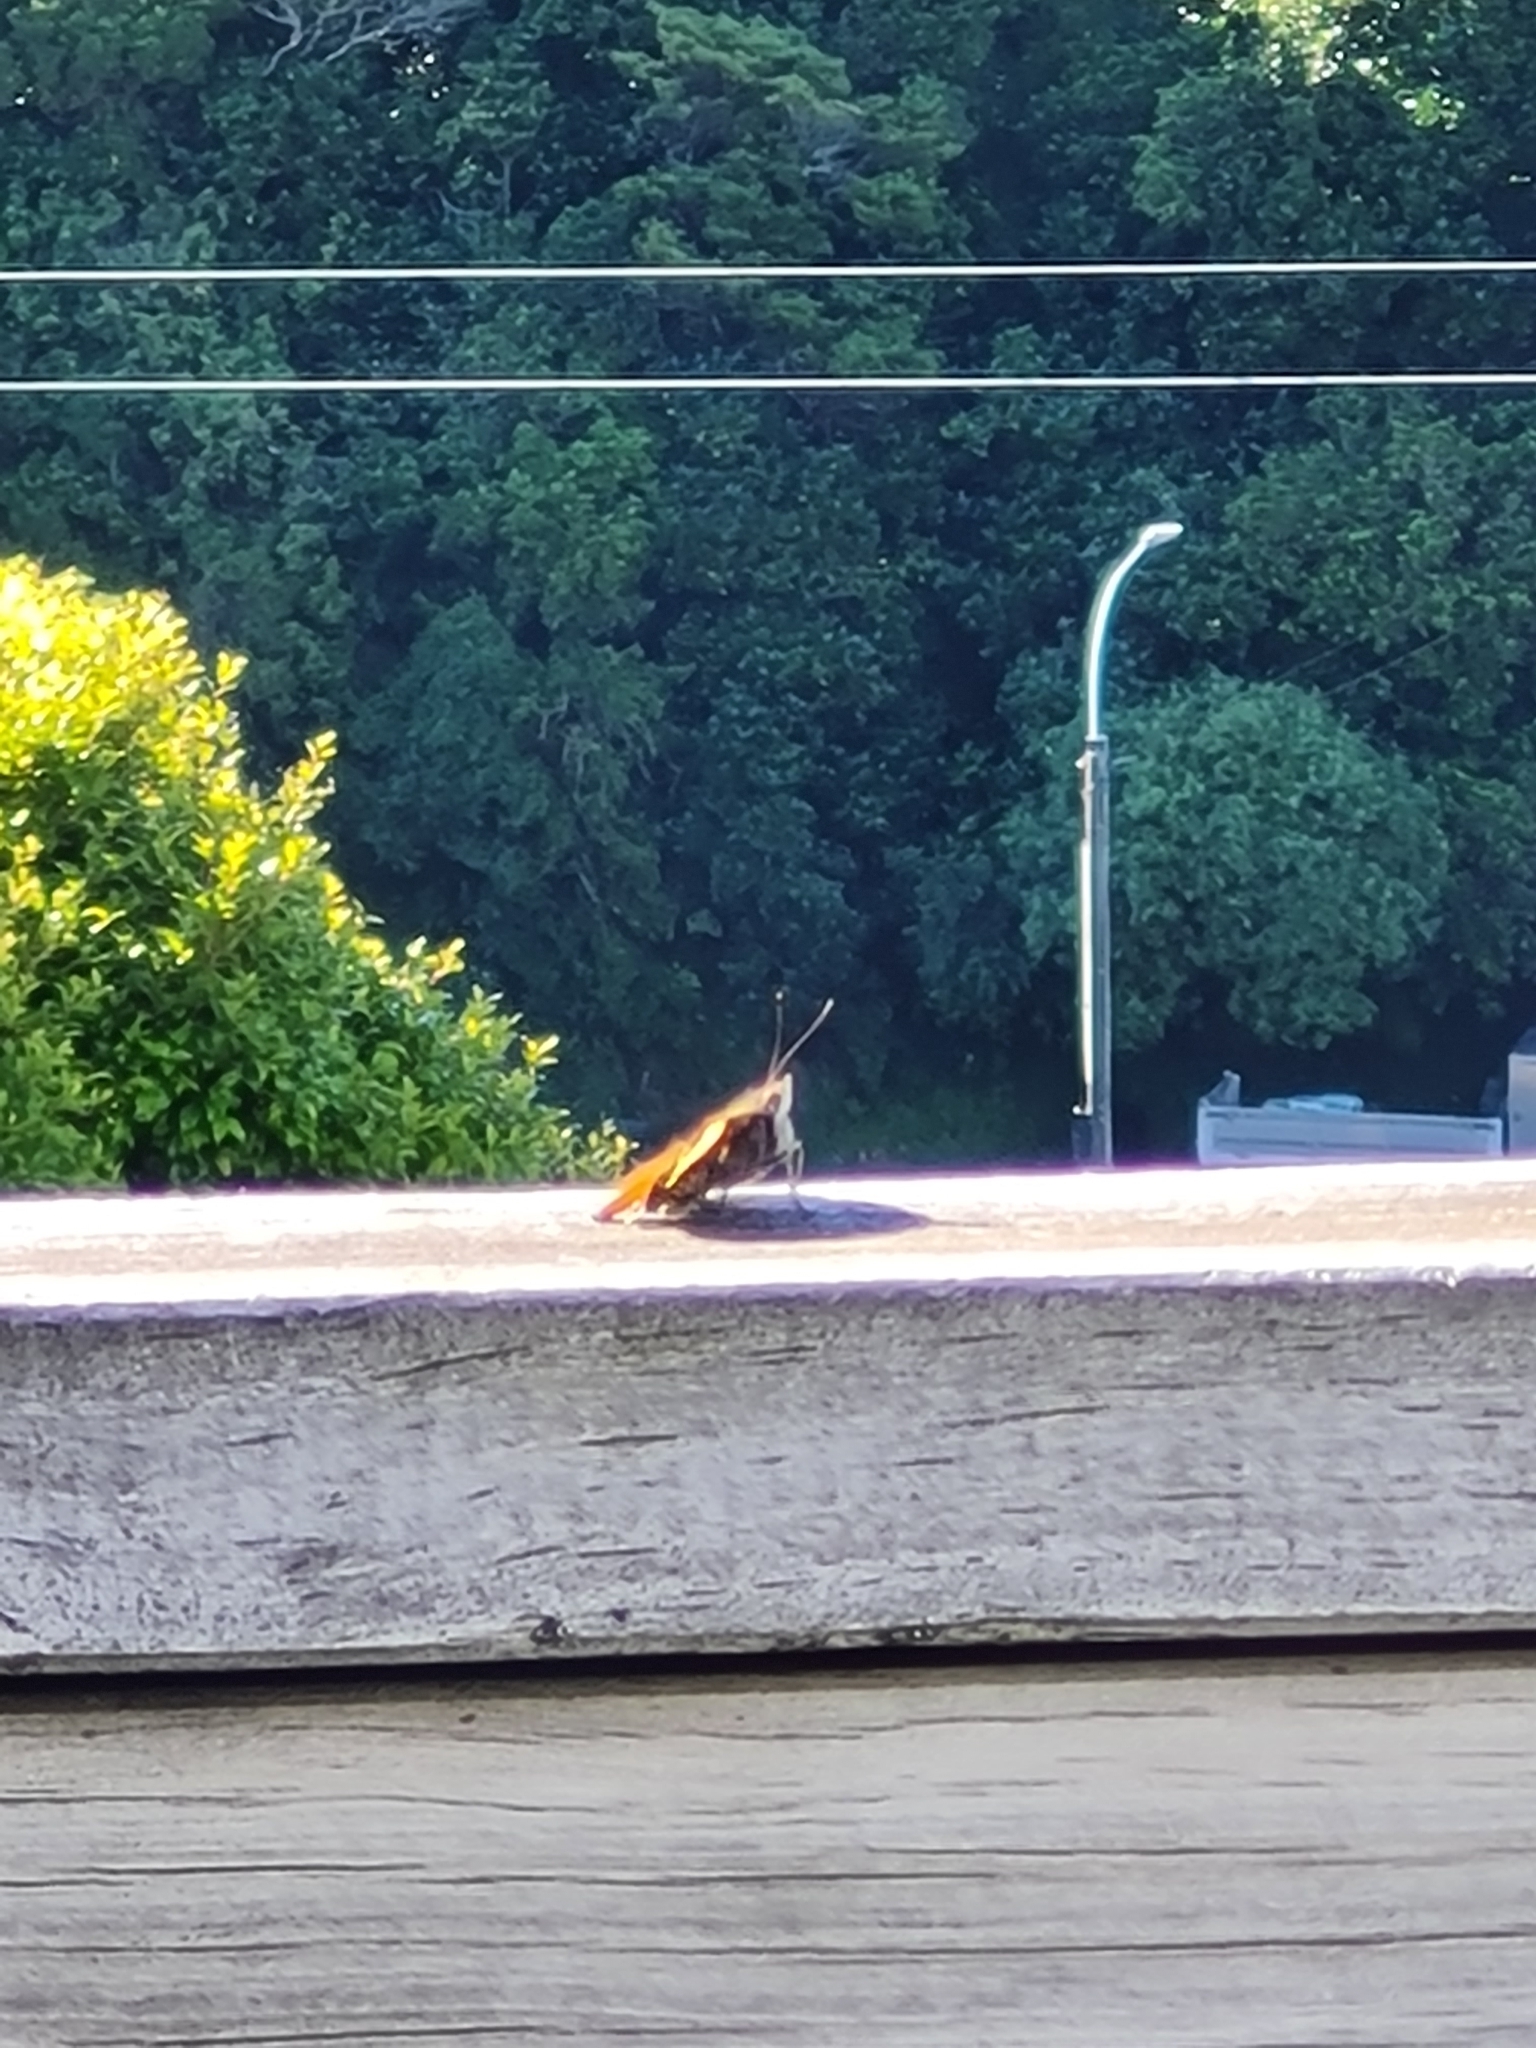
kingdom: Animalia
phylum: Arthropoda
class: Insecta
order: Lepidoptera
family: Nymphalidae
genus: Vanessa
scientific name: Vanessa itea
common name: Yellow admiral
